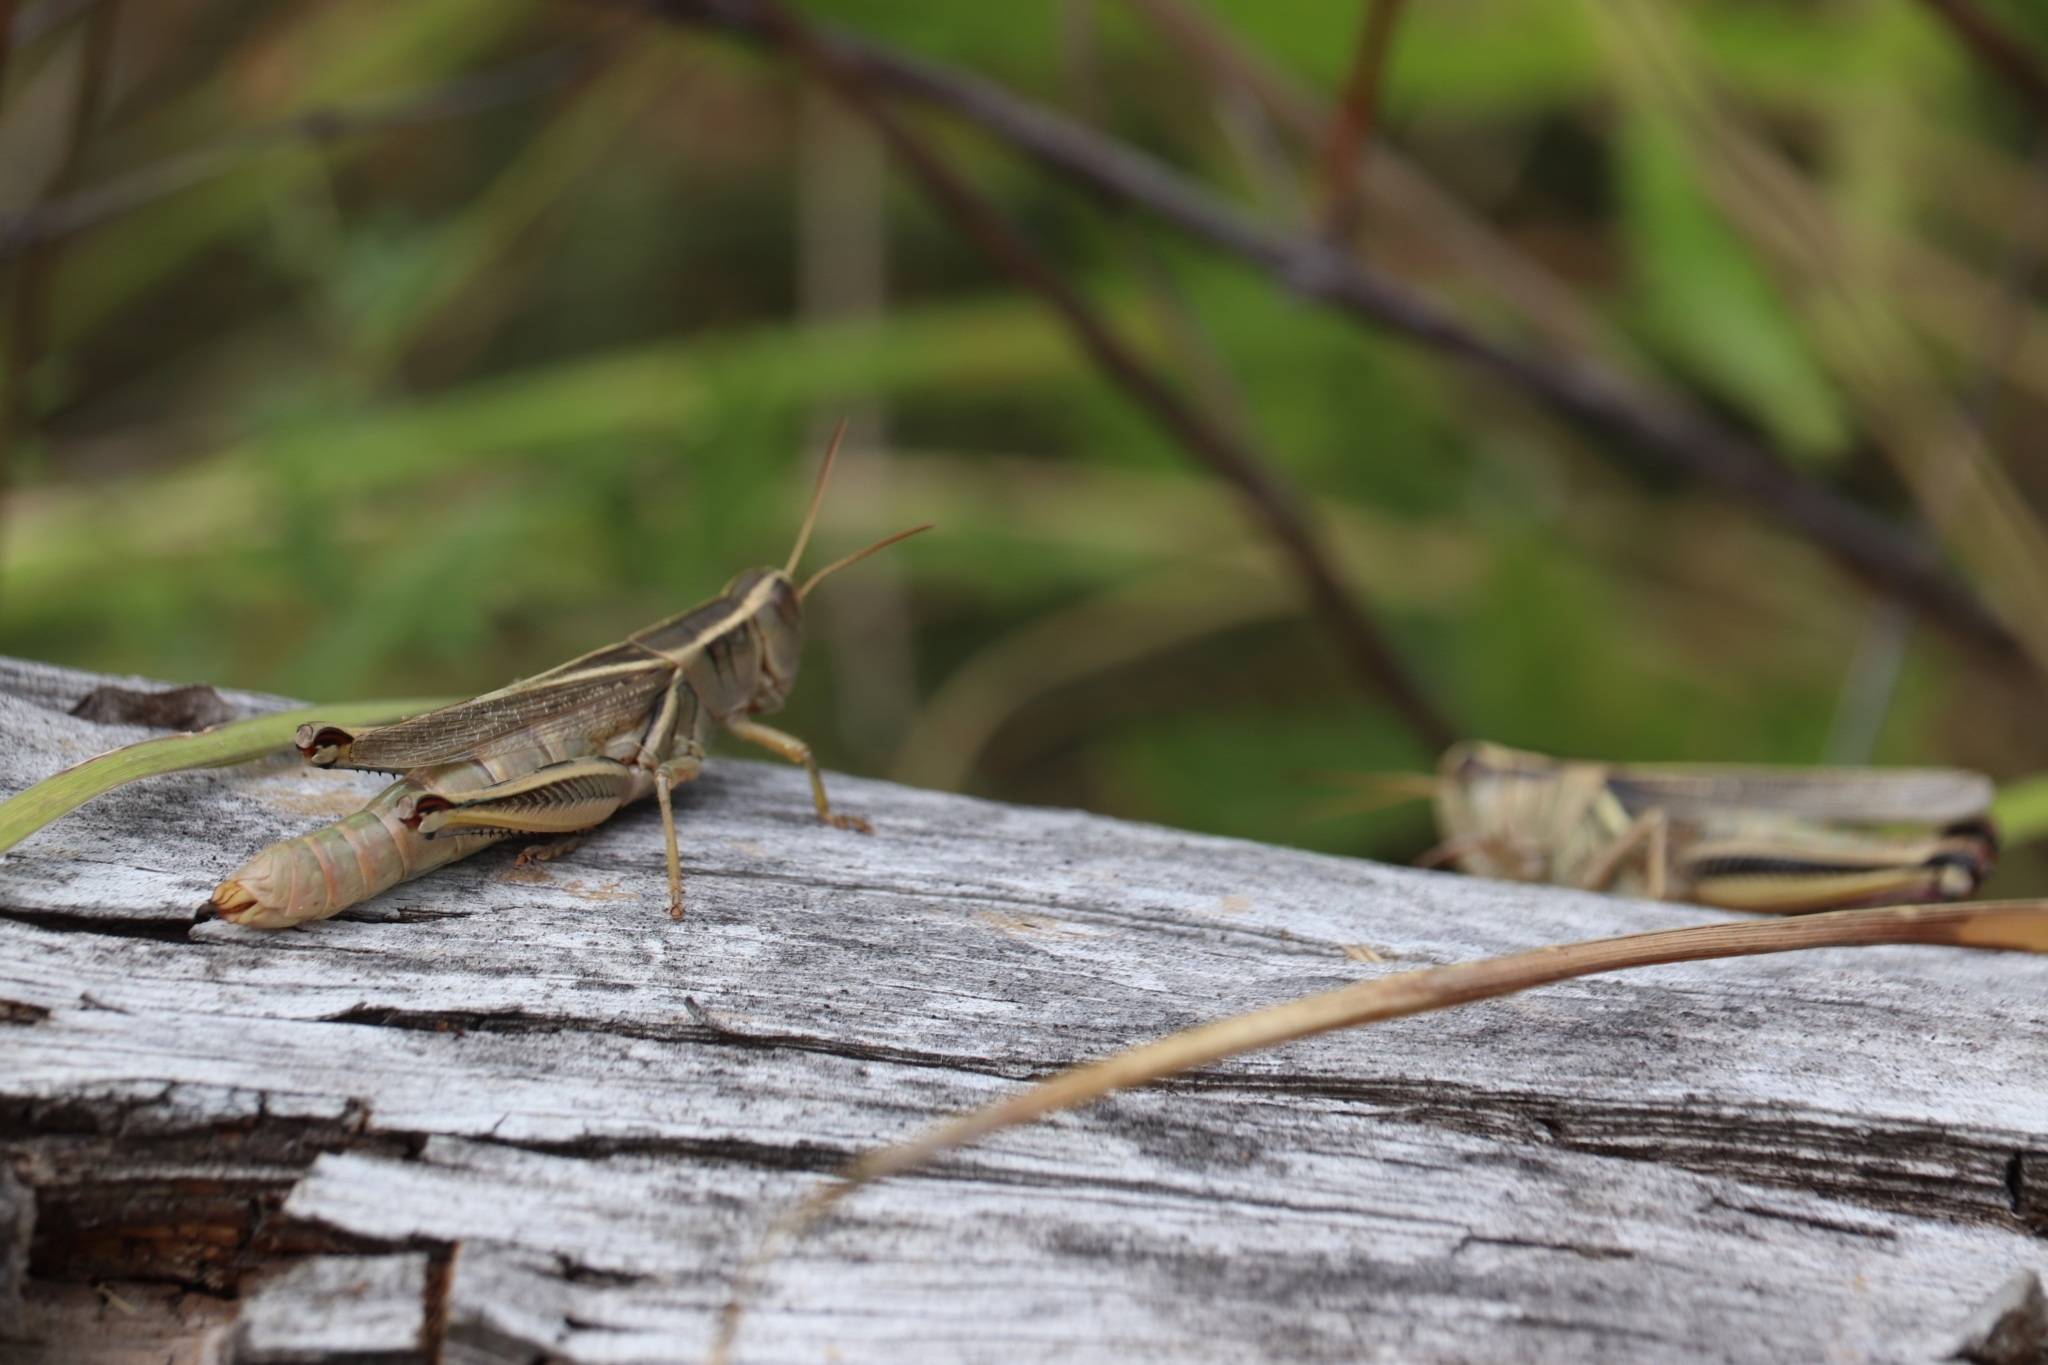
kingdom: Animalia
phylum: Arthropoda
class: Insecta
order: Orthoptera
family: Acrididae
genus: Melanoplus
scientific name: Melanoplus bivittatus
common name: Two-striped grasshopper
